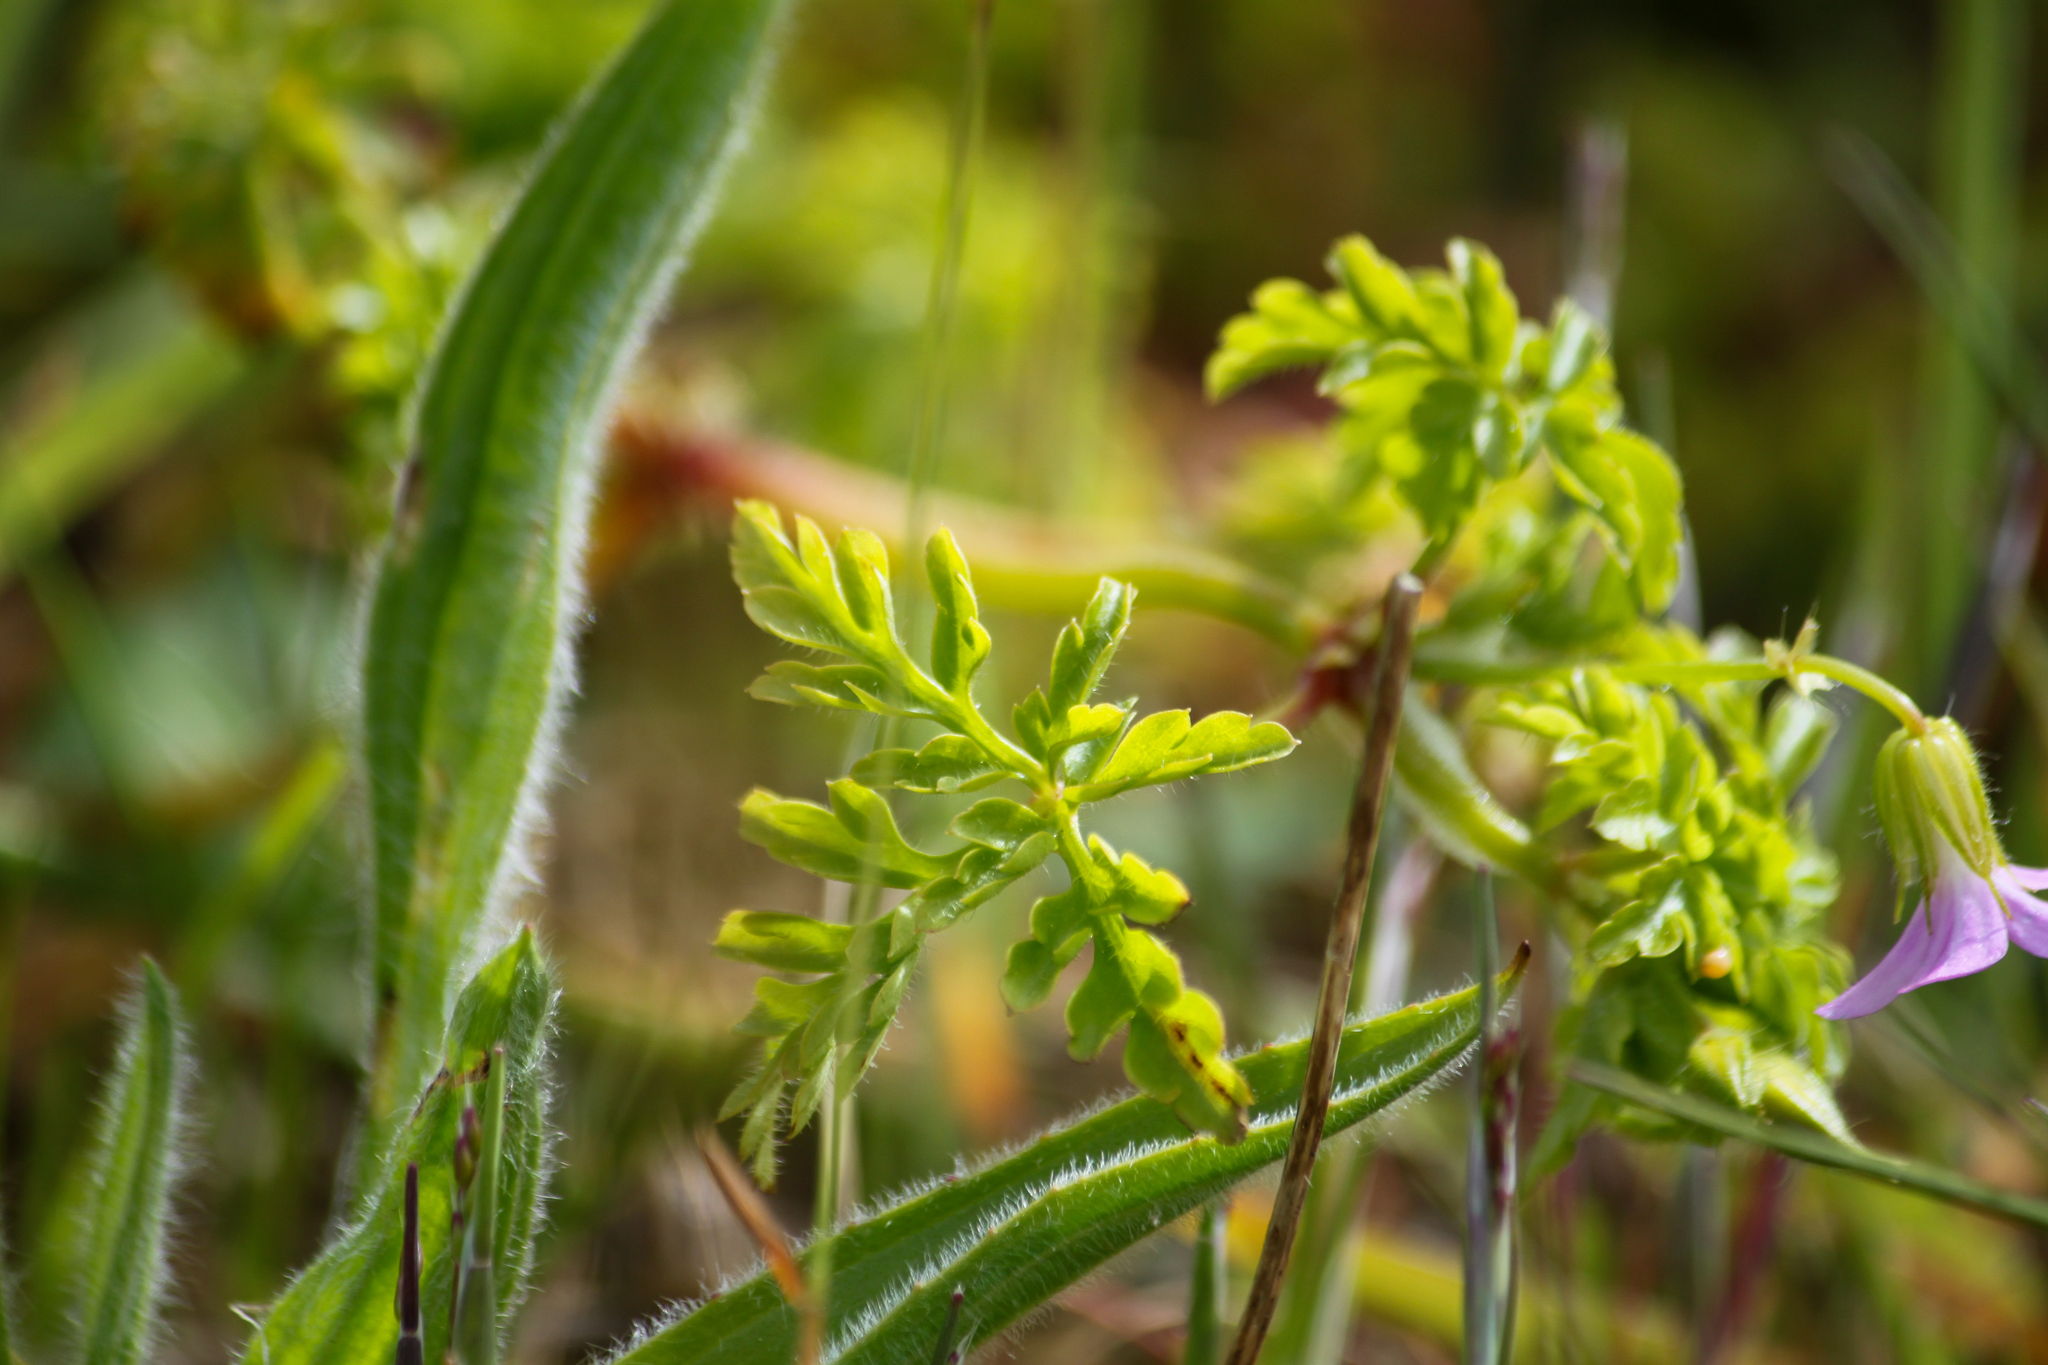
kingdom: Plantae
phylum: Tracheophyta
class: Magnoliopsida
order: Geraniales
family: Geraniaceae
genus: Geranium
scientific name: Geranium robertianum
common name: Herb-robert
